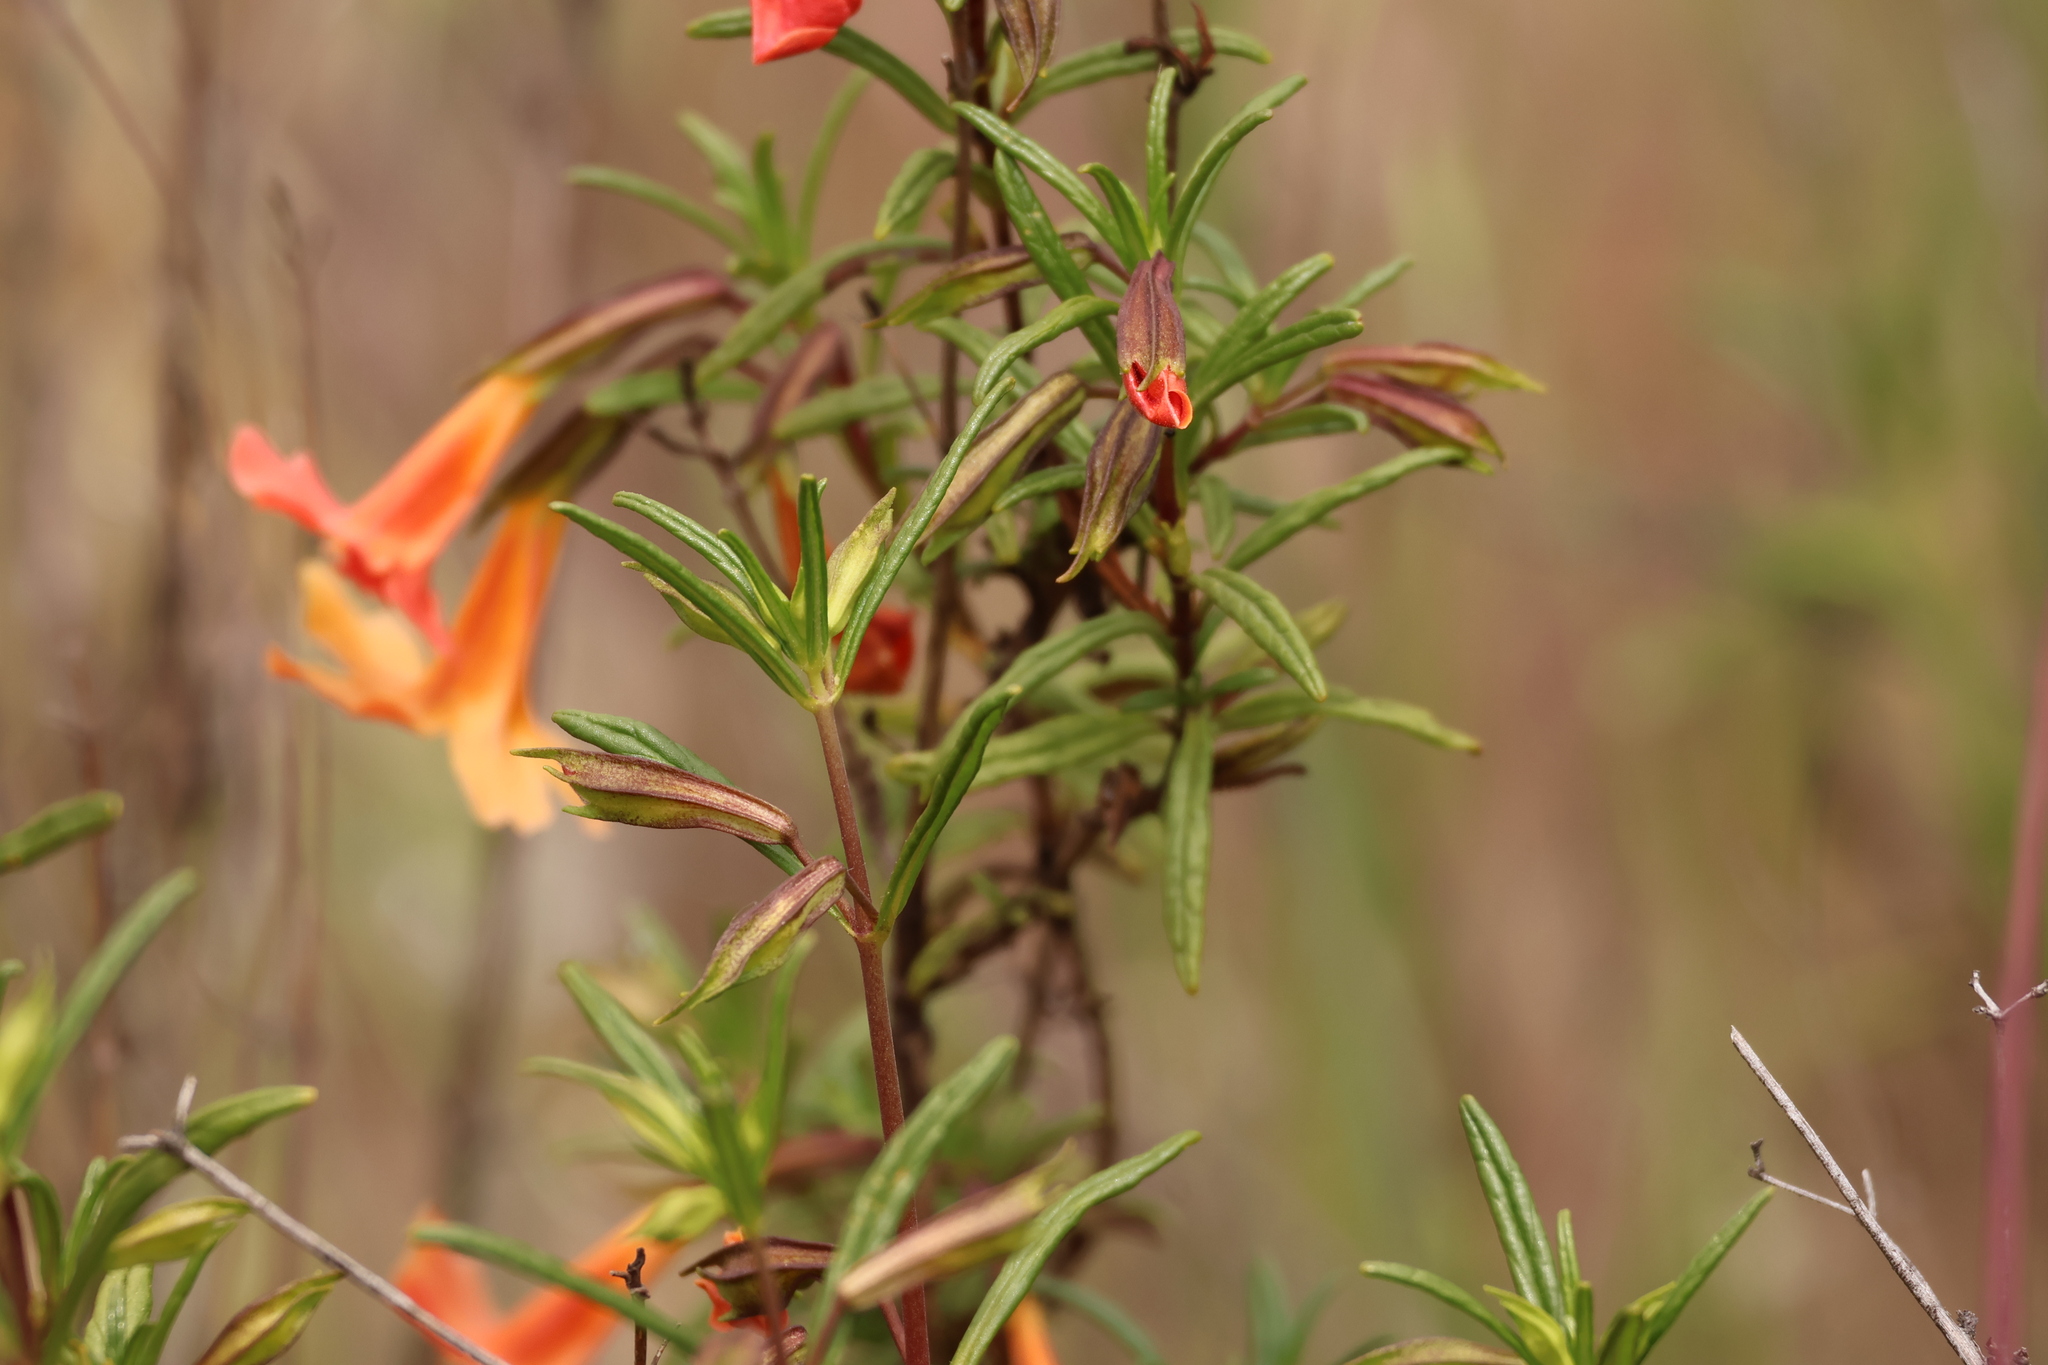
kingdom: Plantae
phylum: Tracheophyta
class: Magnoliopsida
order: Lamiales
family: Phrymaceae
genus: Diplacus
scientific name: Diplacus australis
